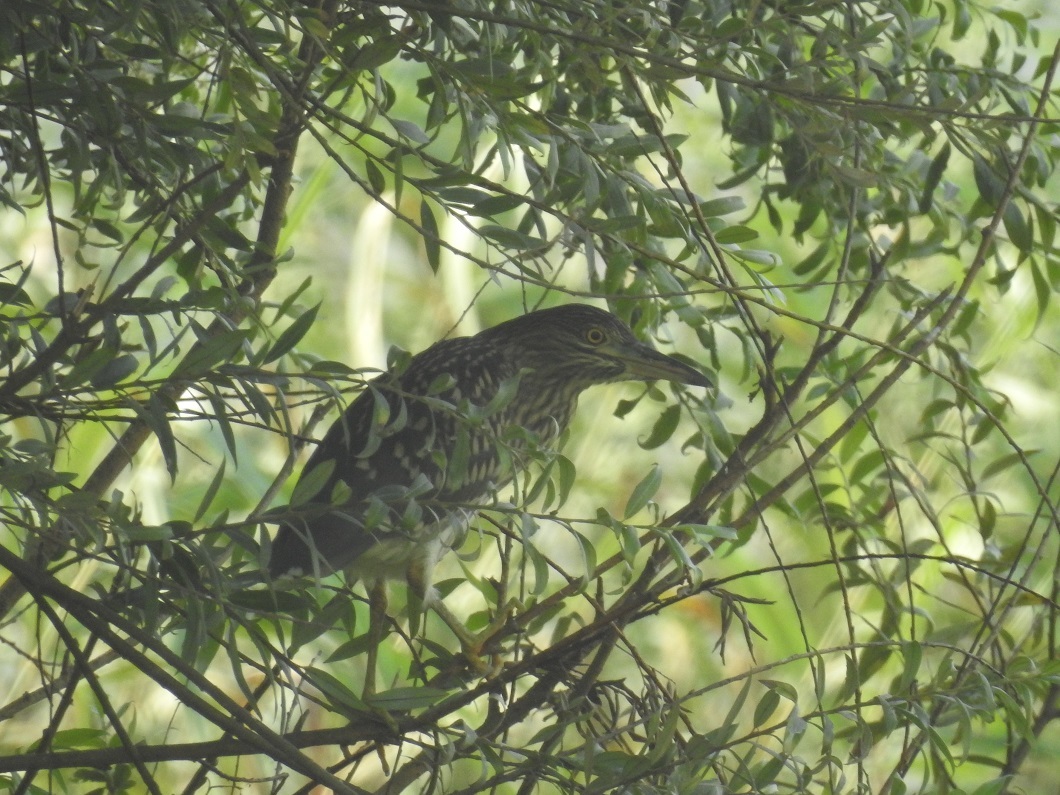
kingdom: Animalia
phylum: Chordata
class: Aves
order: Pelecaniformes
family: Ardeidae
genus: Nycticorax
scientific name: Nycticorax nycticorax
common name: Black-crowned night heron
